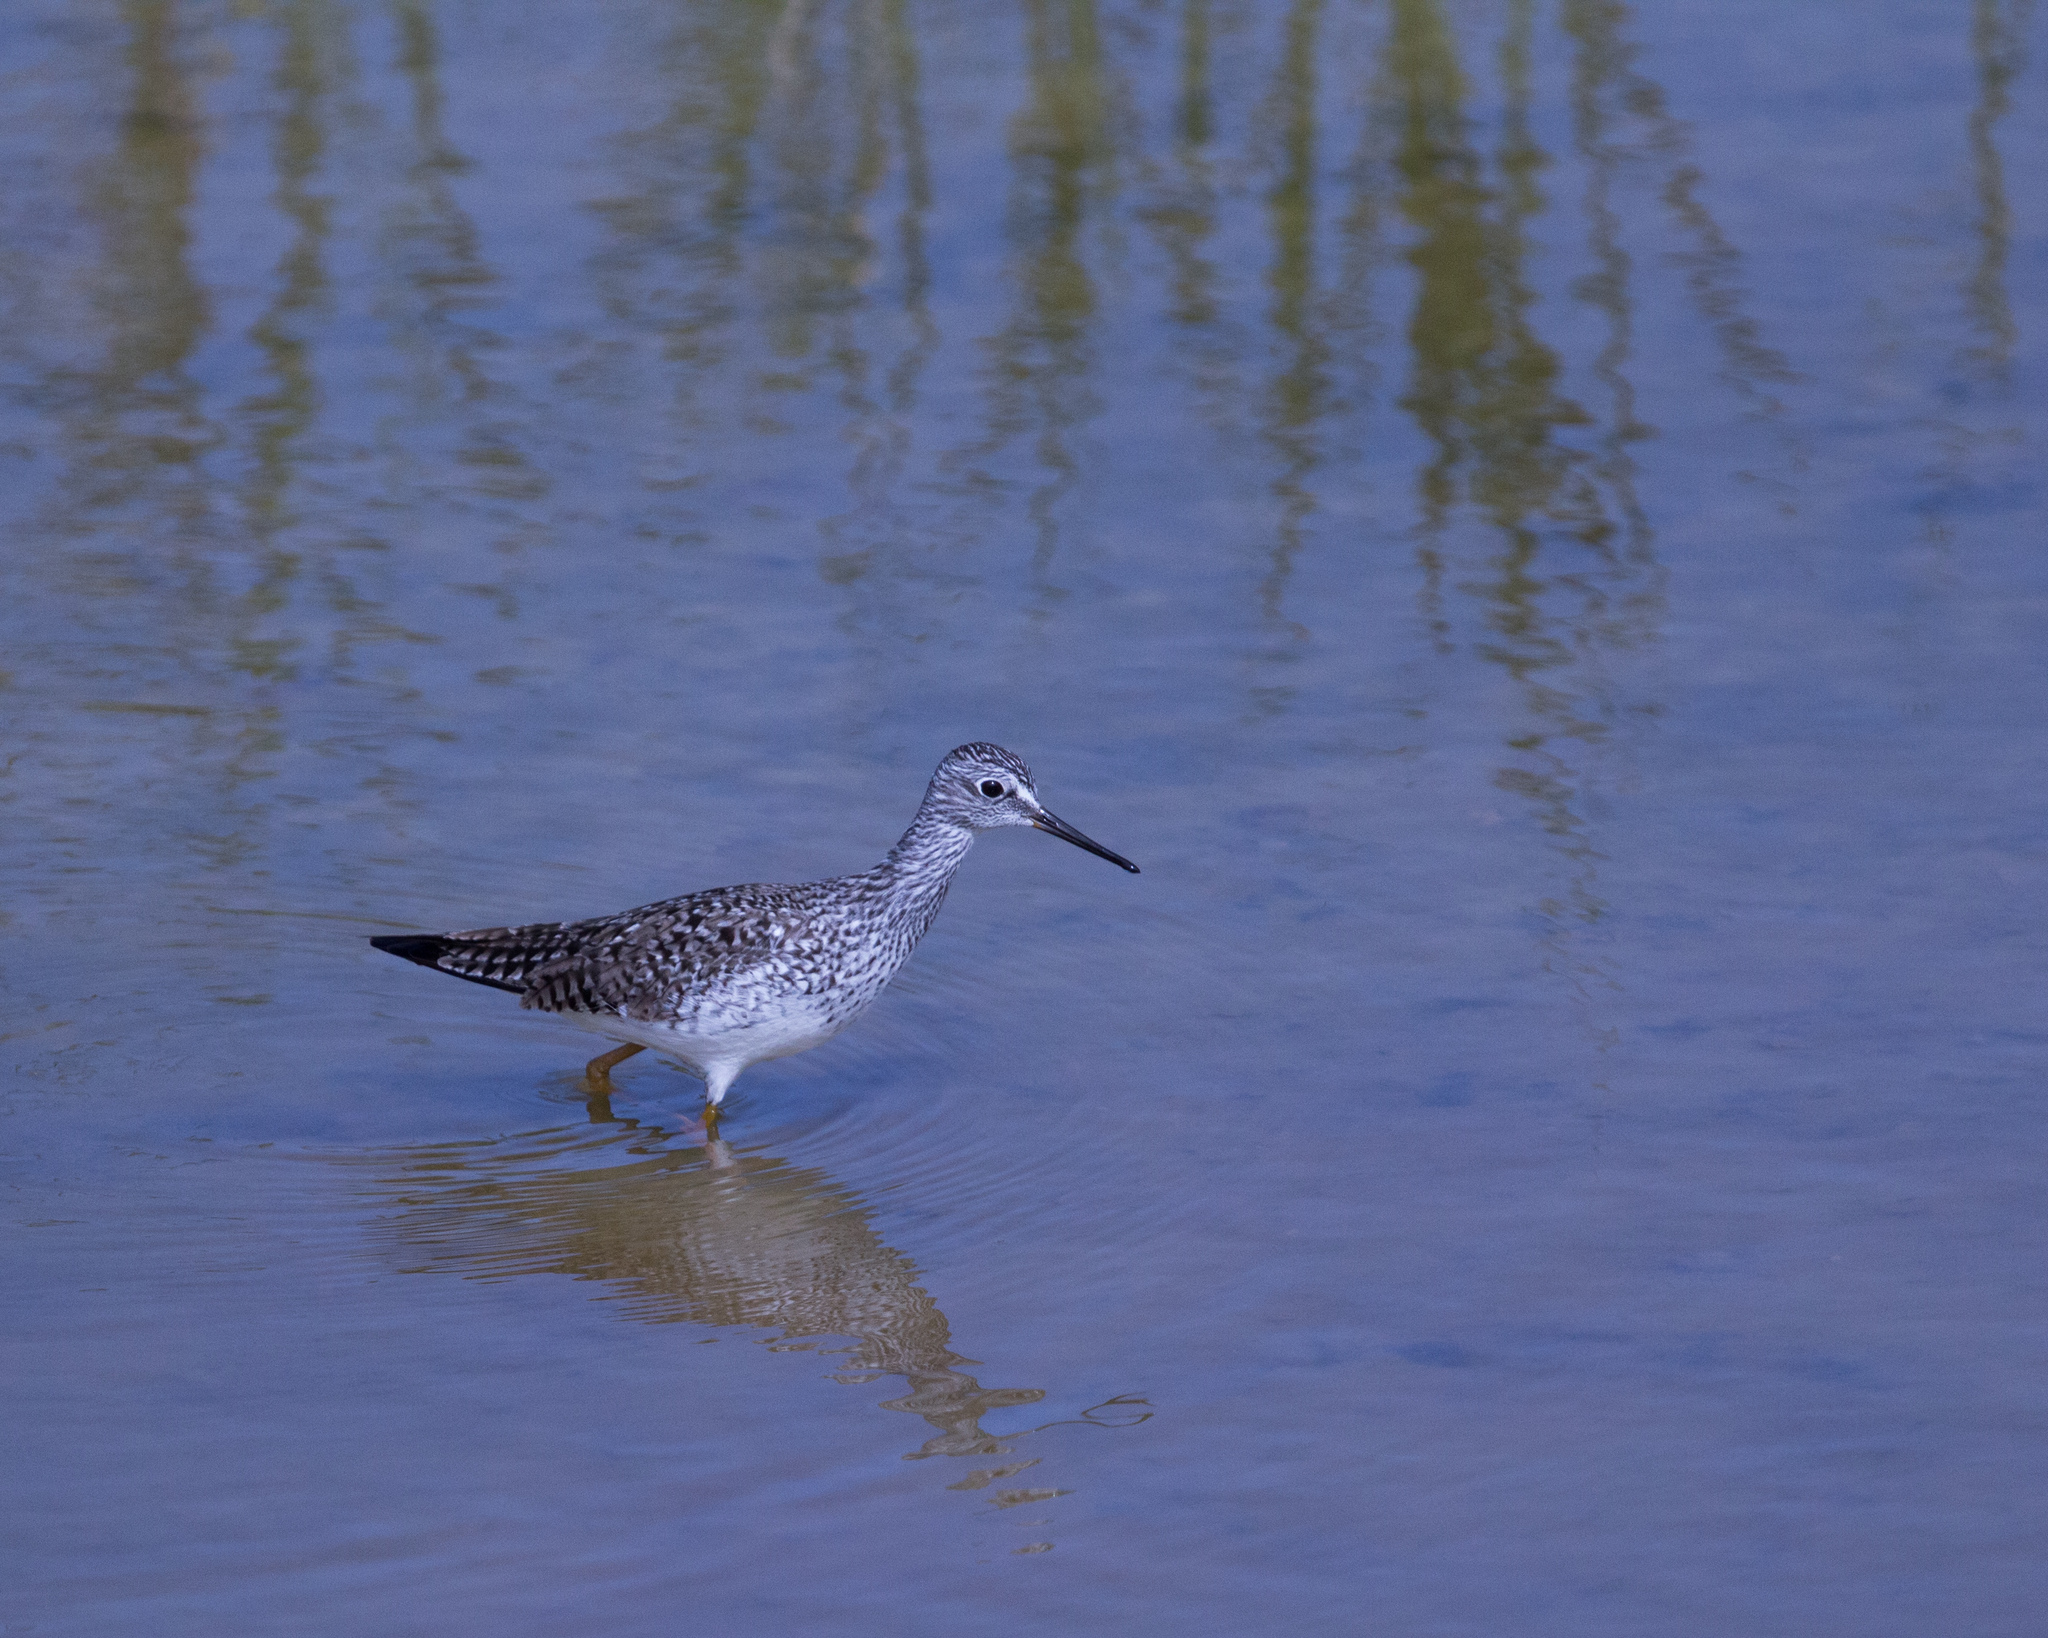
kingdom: Animalia
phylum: Chordata
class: Aves
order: Charadriiformes
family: Scolopacidae
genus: Tringa
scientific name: Tringa flavipes
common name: Lesser yellowlegs
